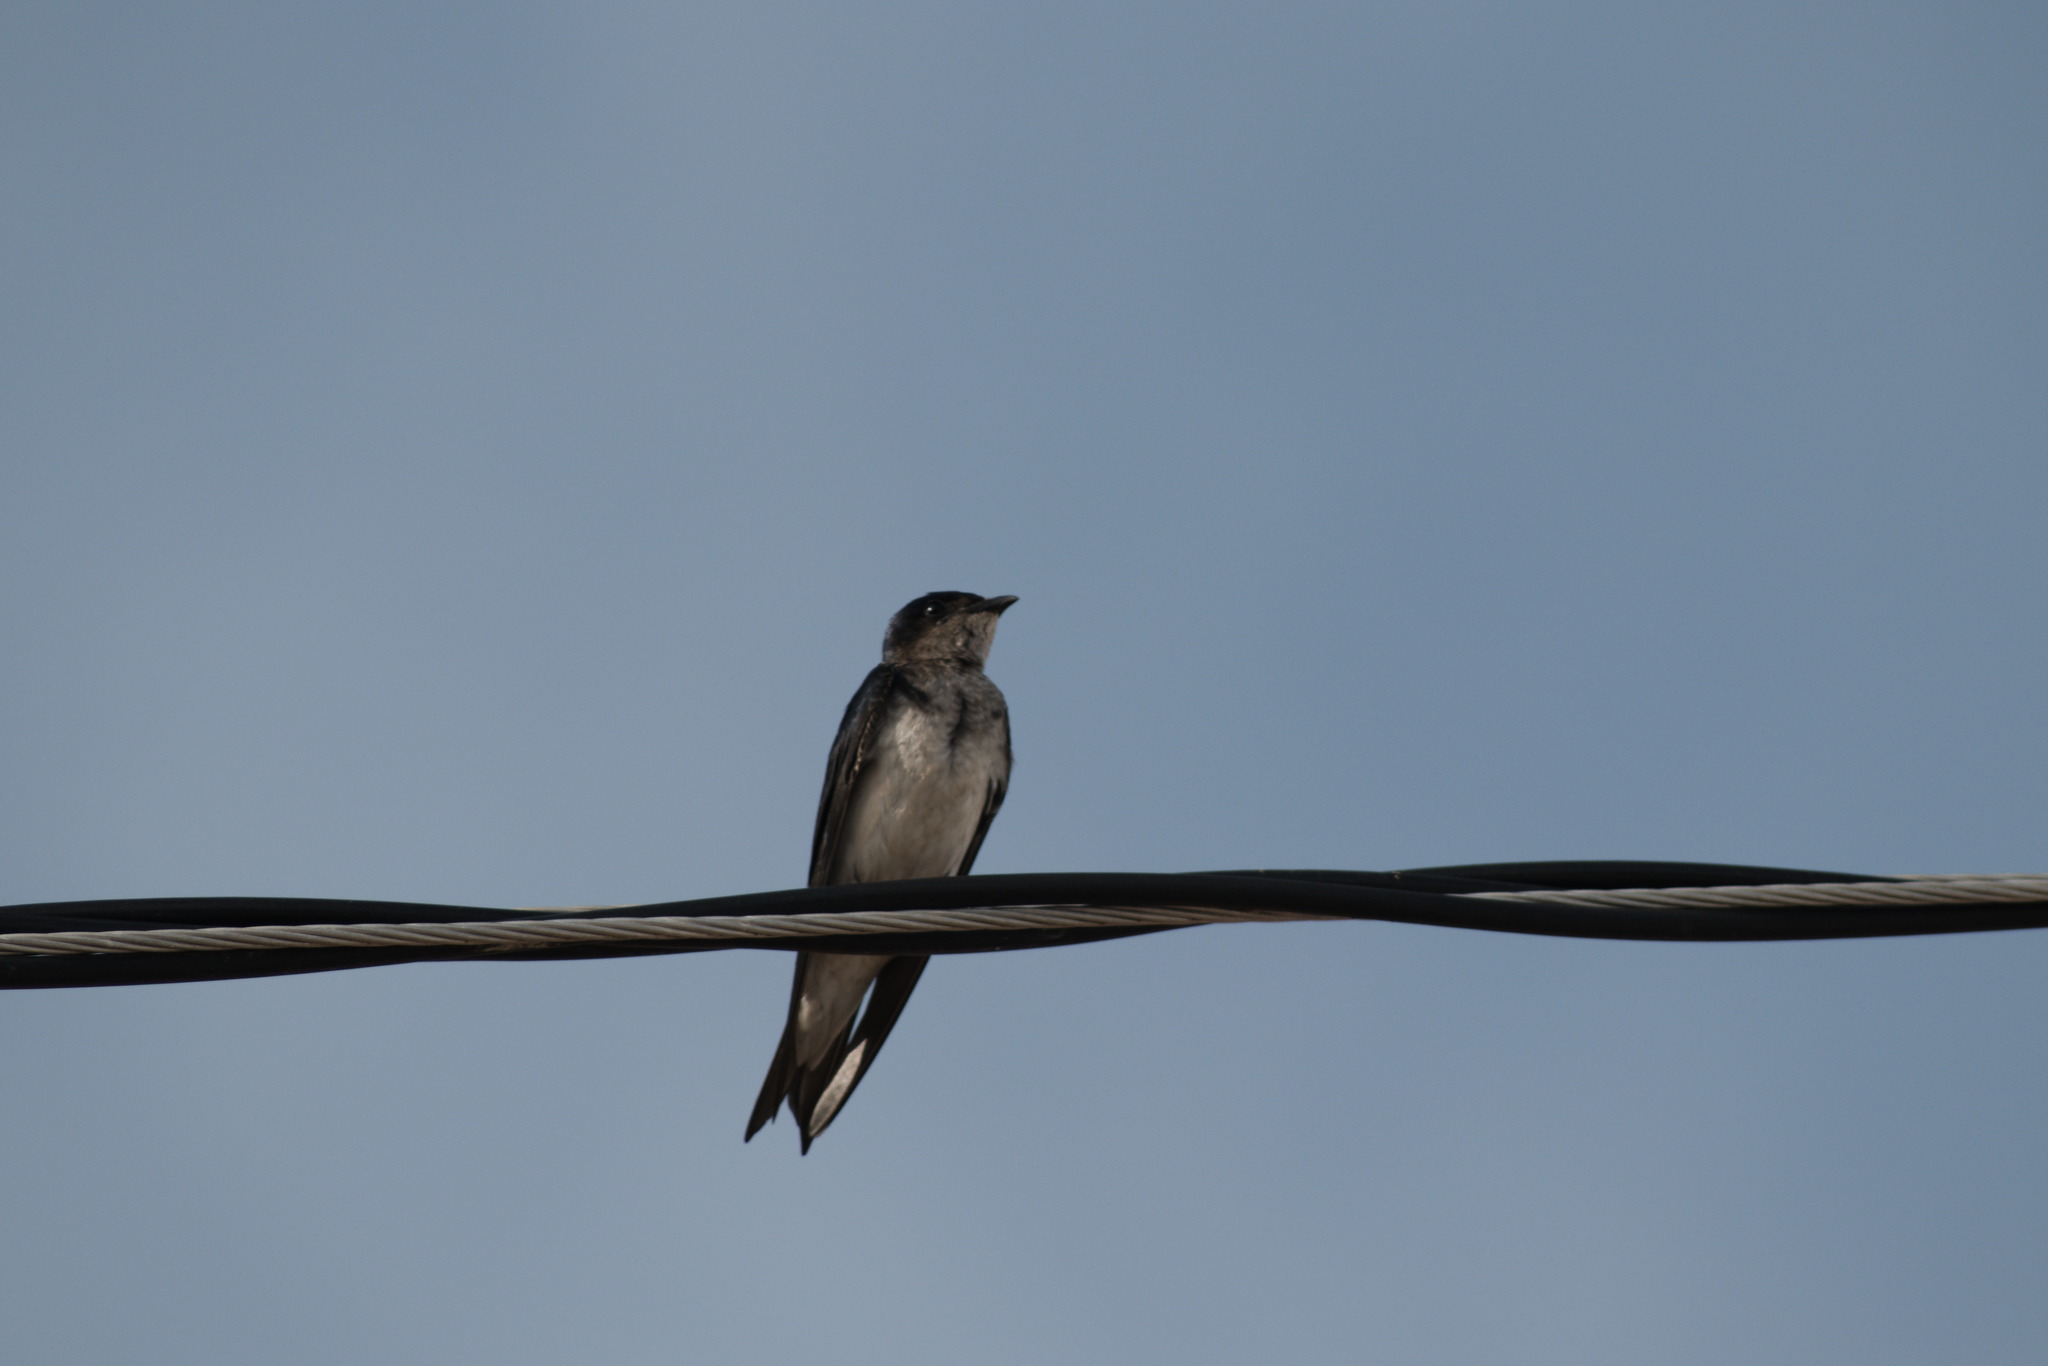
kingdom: Animalia
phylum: Chordata
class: Aves
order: Passeriformes
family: Hirundinidae
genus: Progne
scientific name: Progne chalybea
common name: Grey-breasted martin
